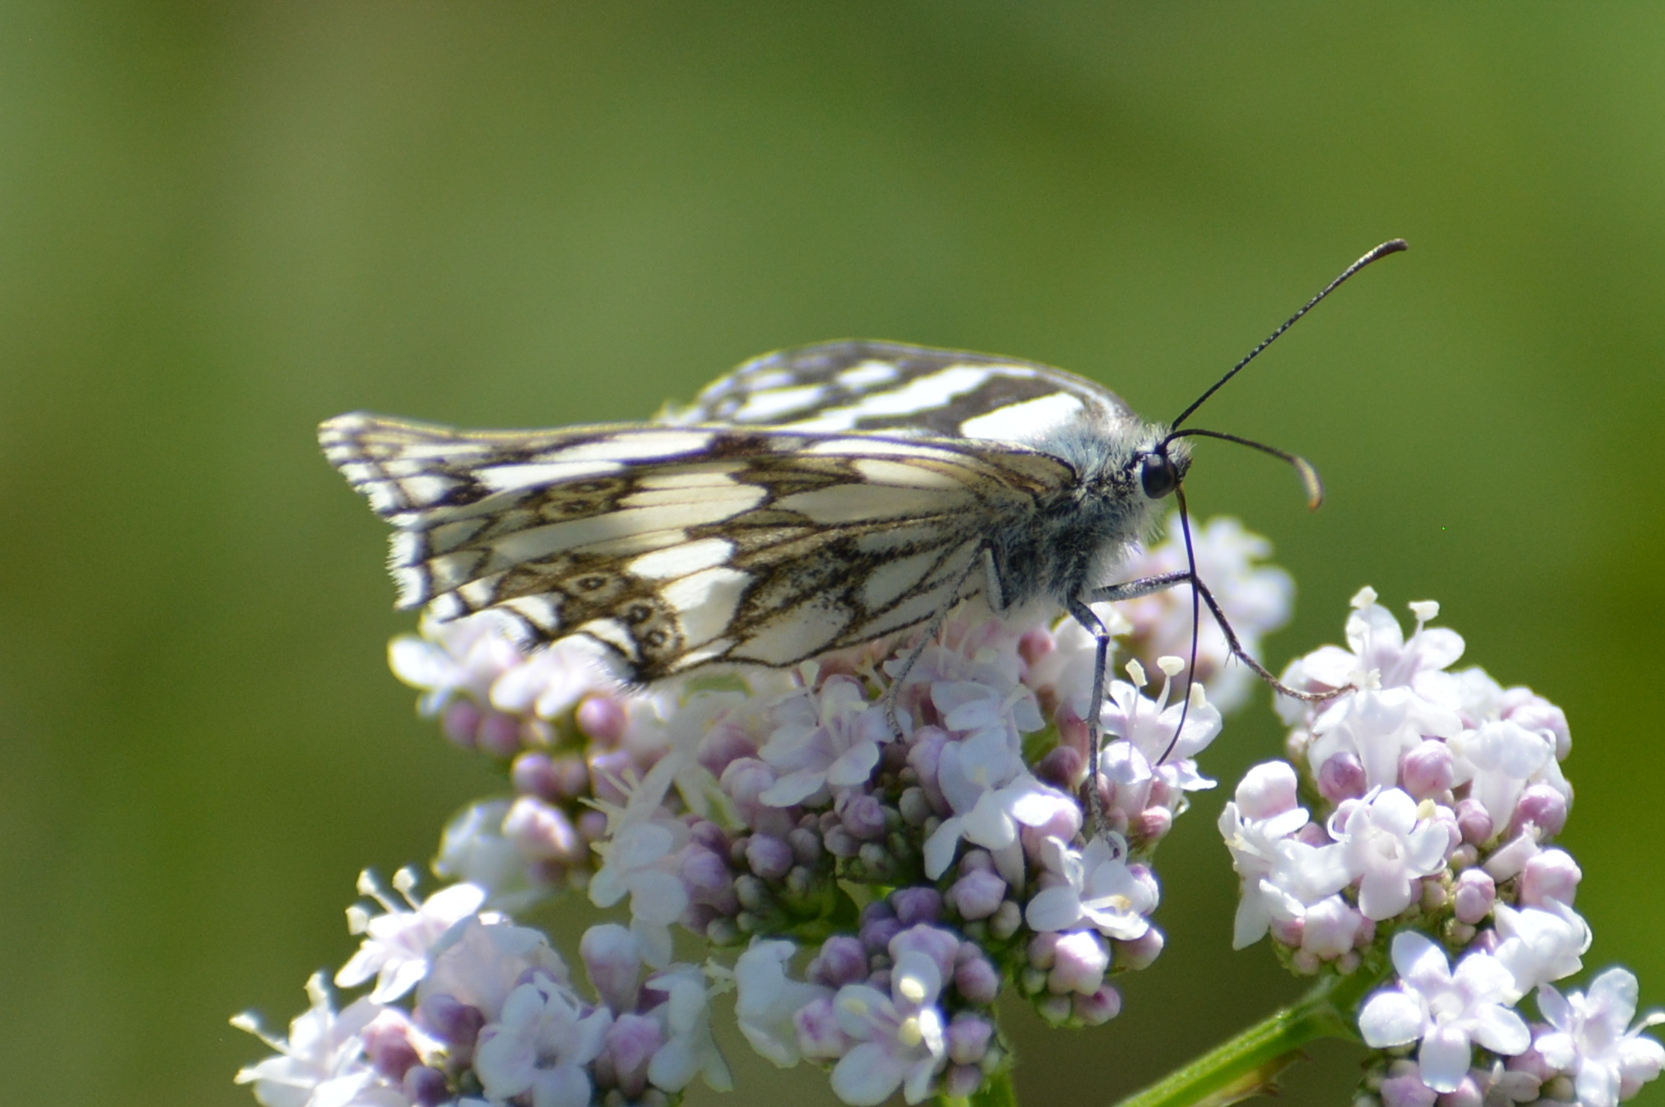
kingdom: Animalia
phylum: Arthropoda
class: Insecta
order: Lepidoptera
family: Nymphalidae
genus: Melanargia
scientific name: Melanargia galathea
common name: Marbled white
